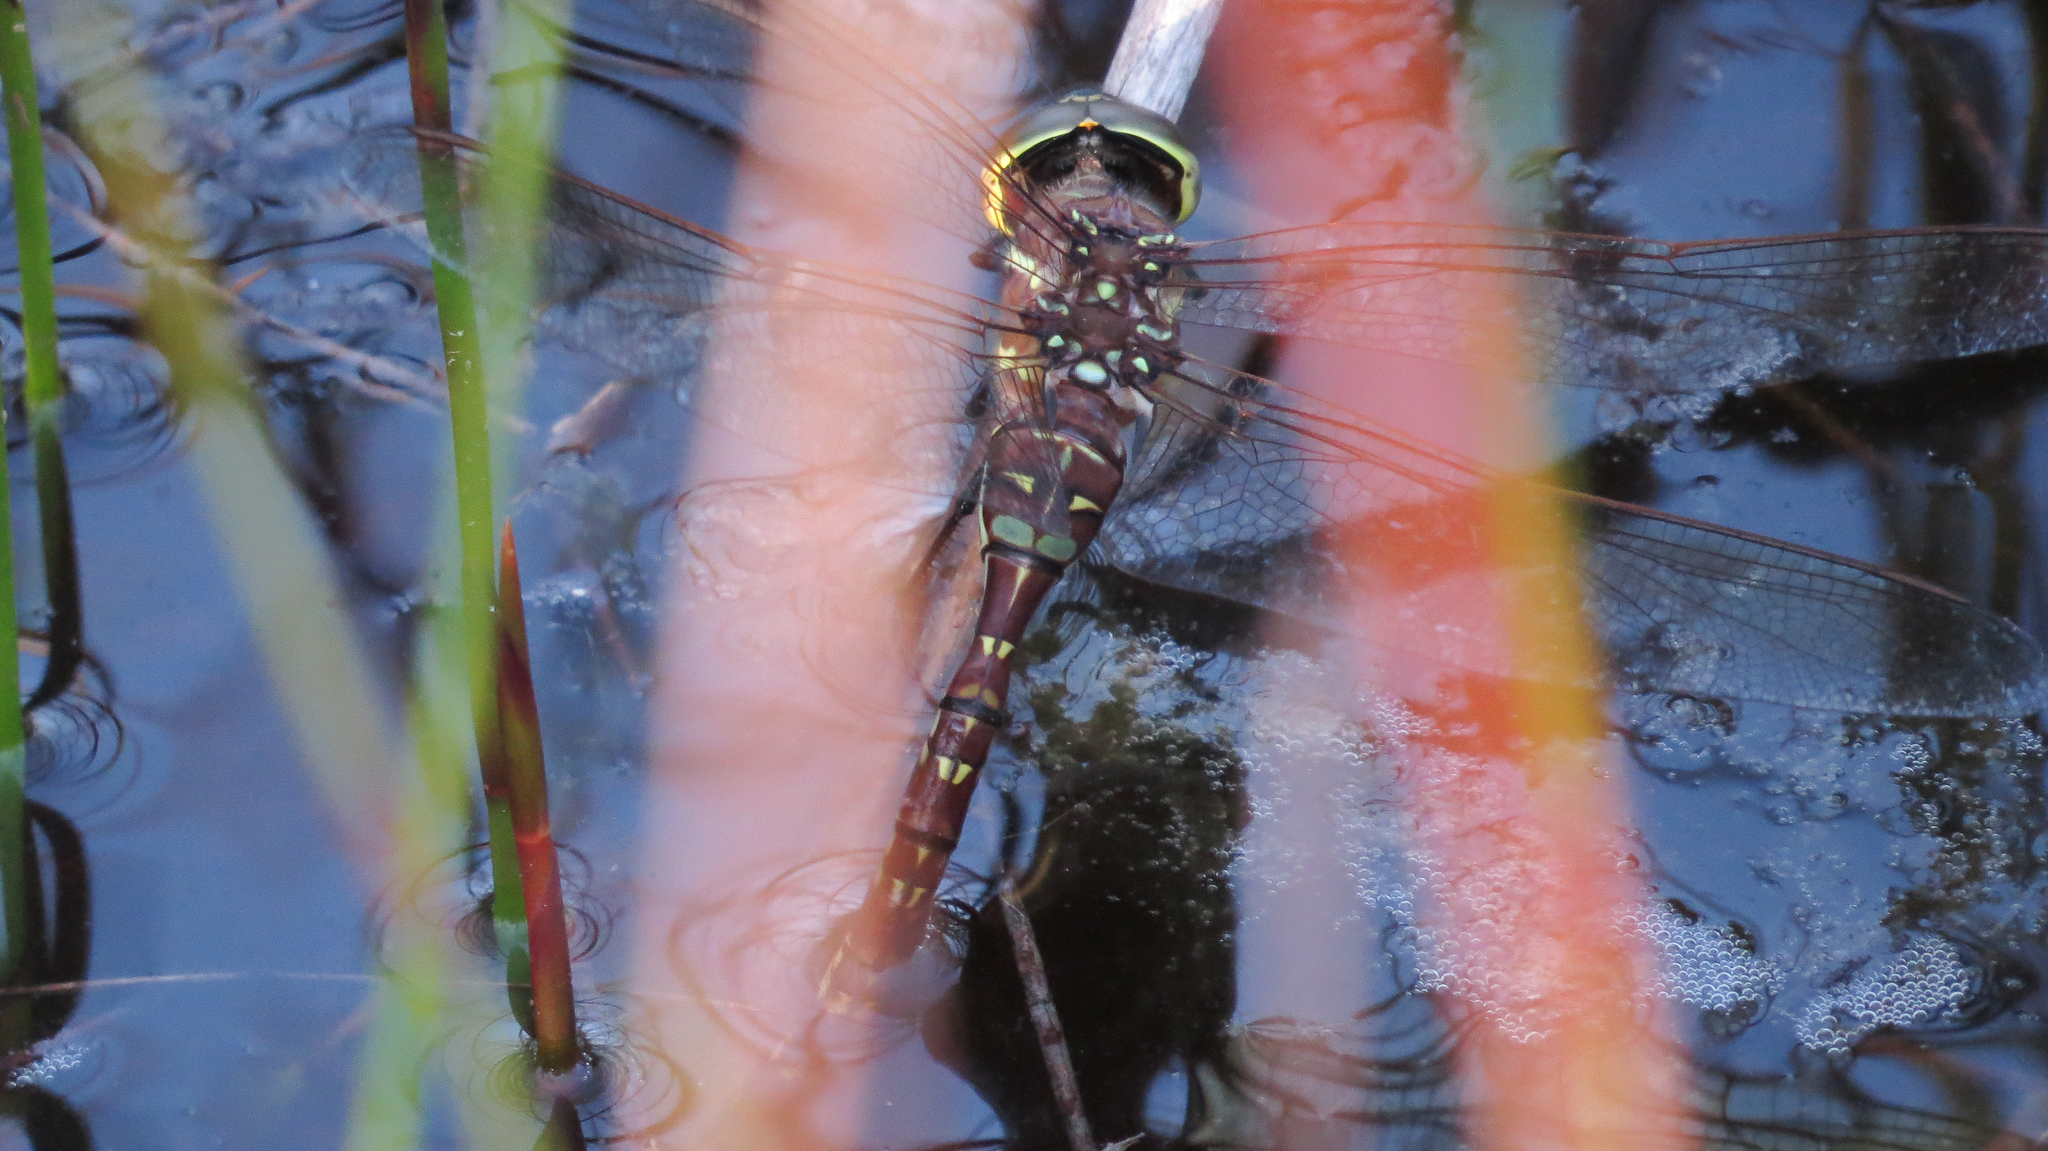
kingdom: Animalia
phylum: Arthropoda
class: Insecta
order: Odonata
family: Aeshnidae
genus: Aeshna
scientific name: Aeshna brevistyla
